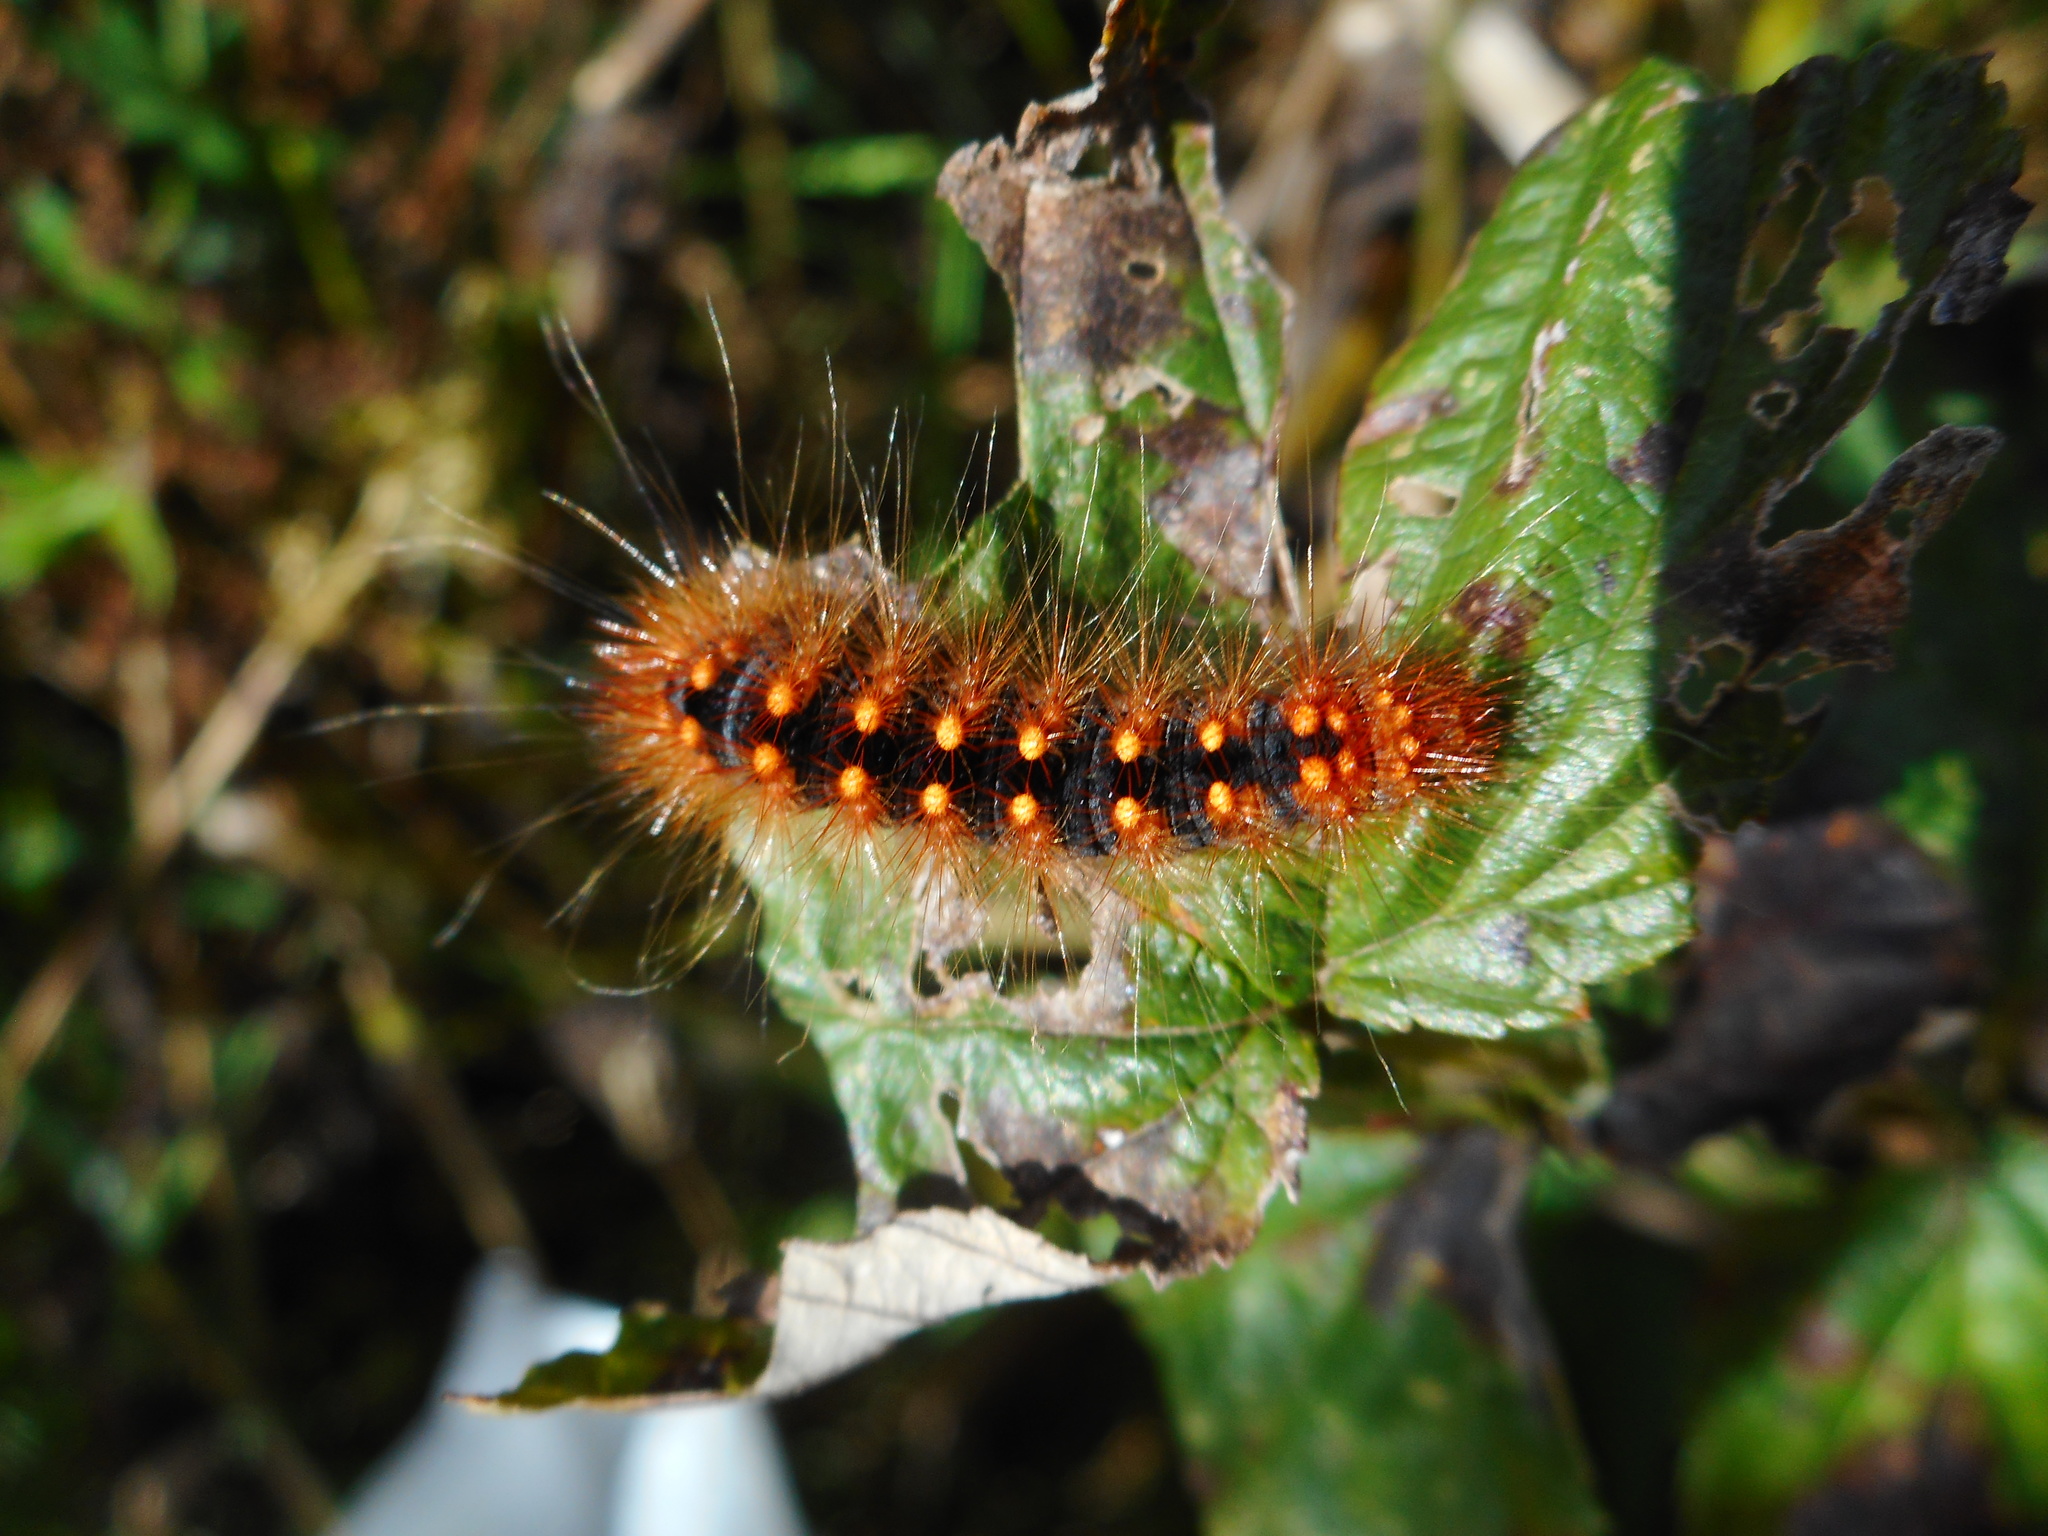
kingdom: Animalia
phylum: Arthropoda
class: Insecta
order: Lepidoptera
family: Noctuidae
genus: Acronicta
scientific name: Acronicta auricoma
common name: Scarce dagger
